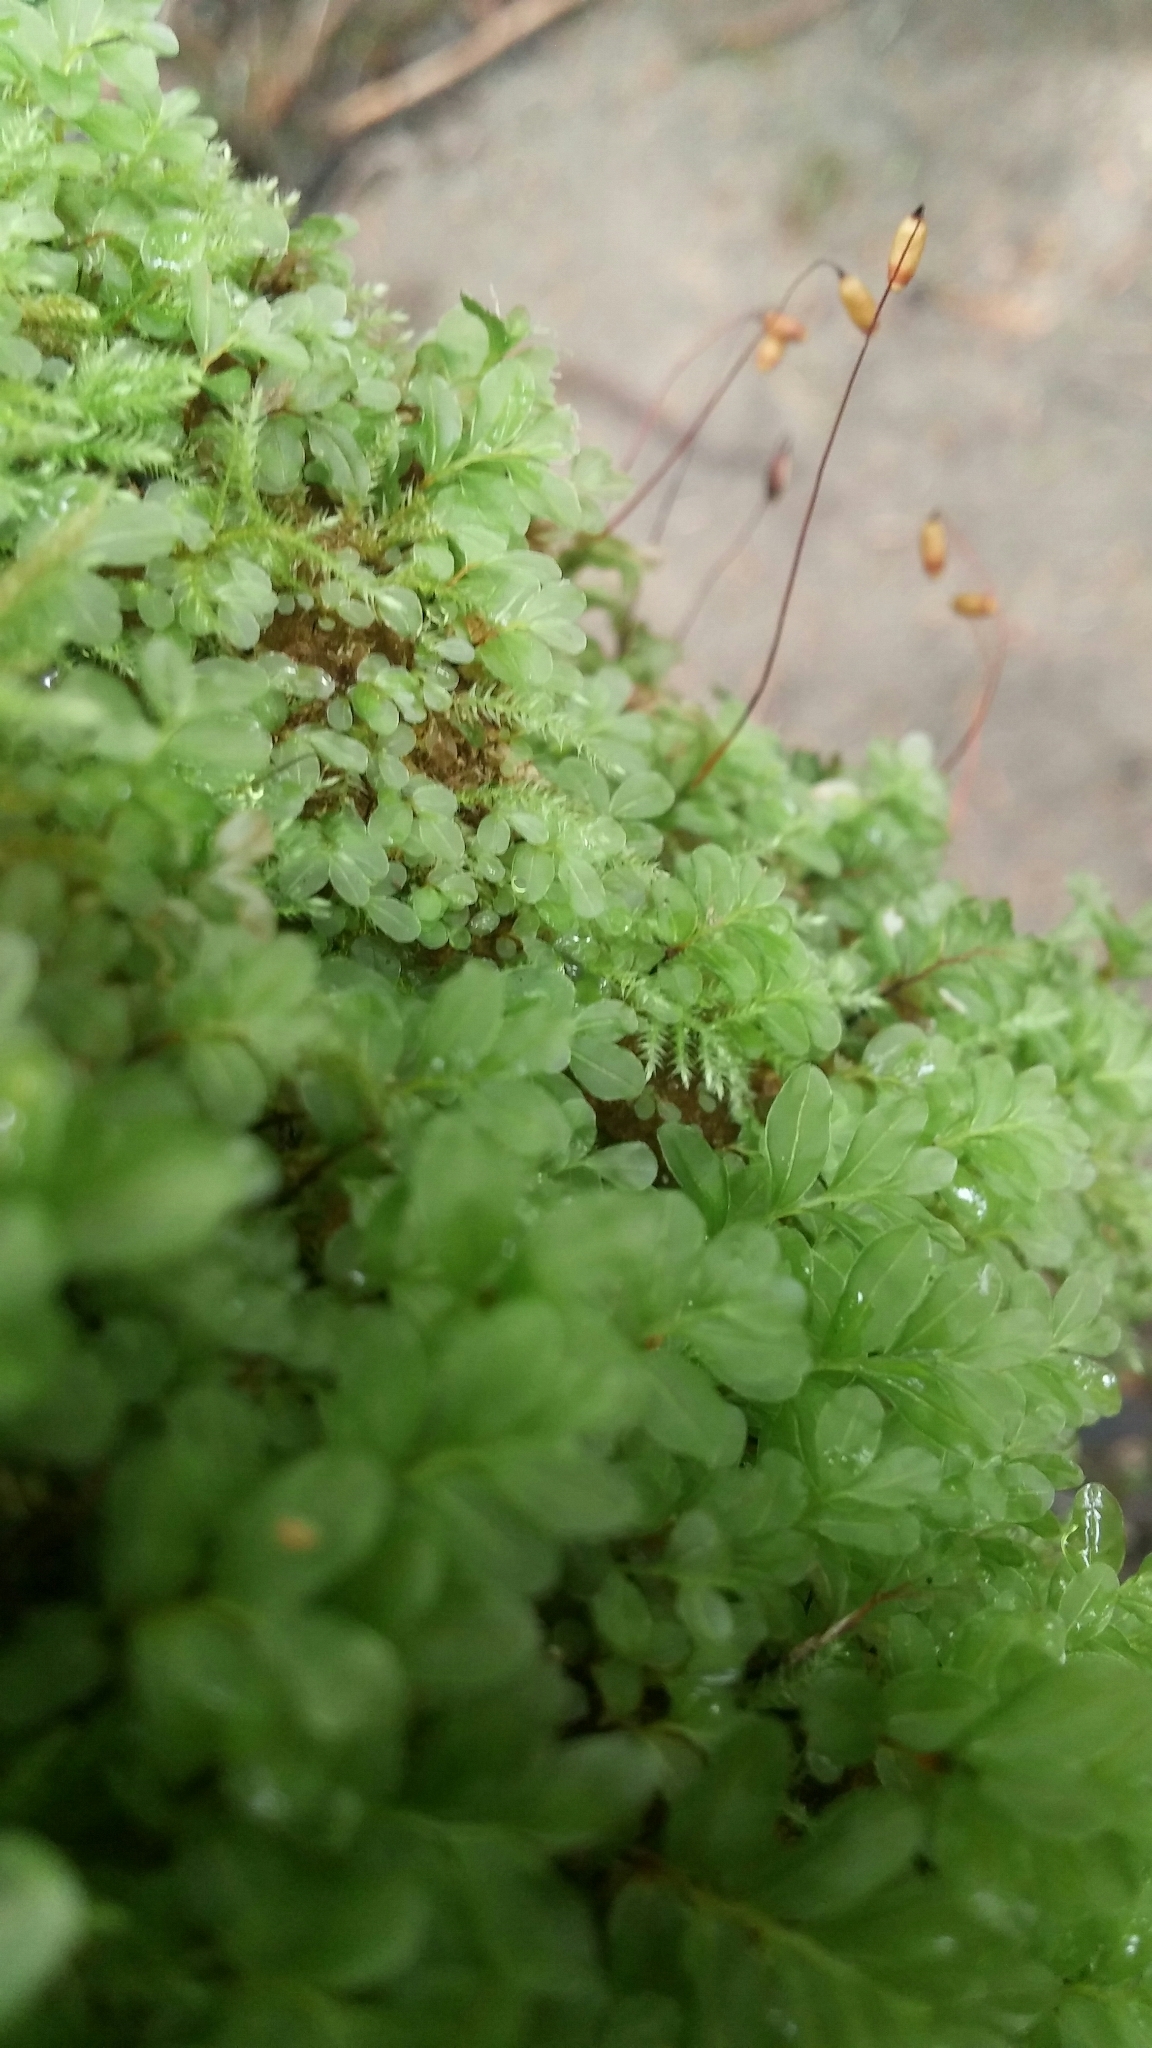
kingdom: Plantae
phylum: Bryophyta
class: Bryopsida
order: Bryales
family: Mniaceae
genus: Rhizomnium
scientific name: Rhizomnium glabrescens
